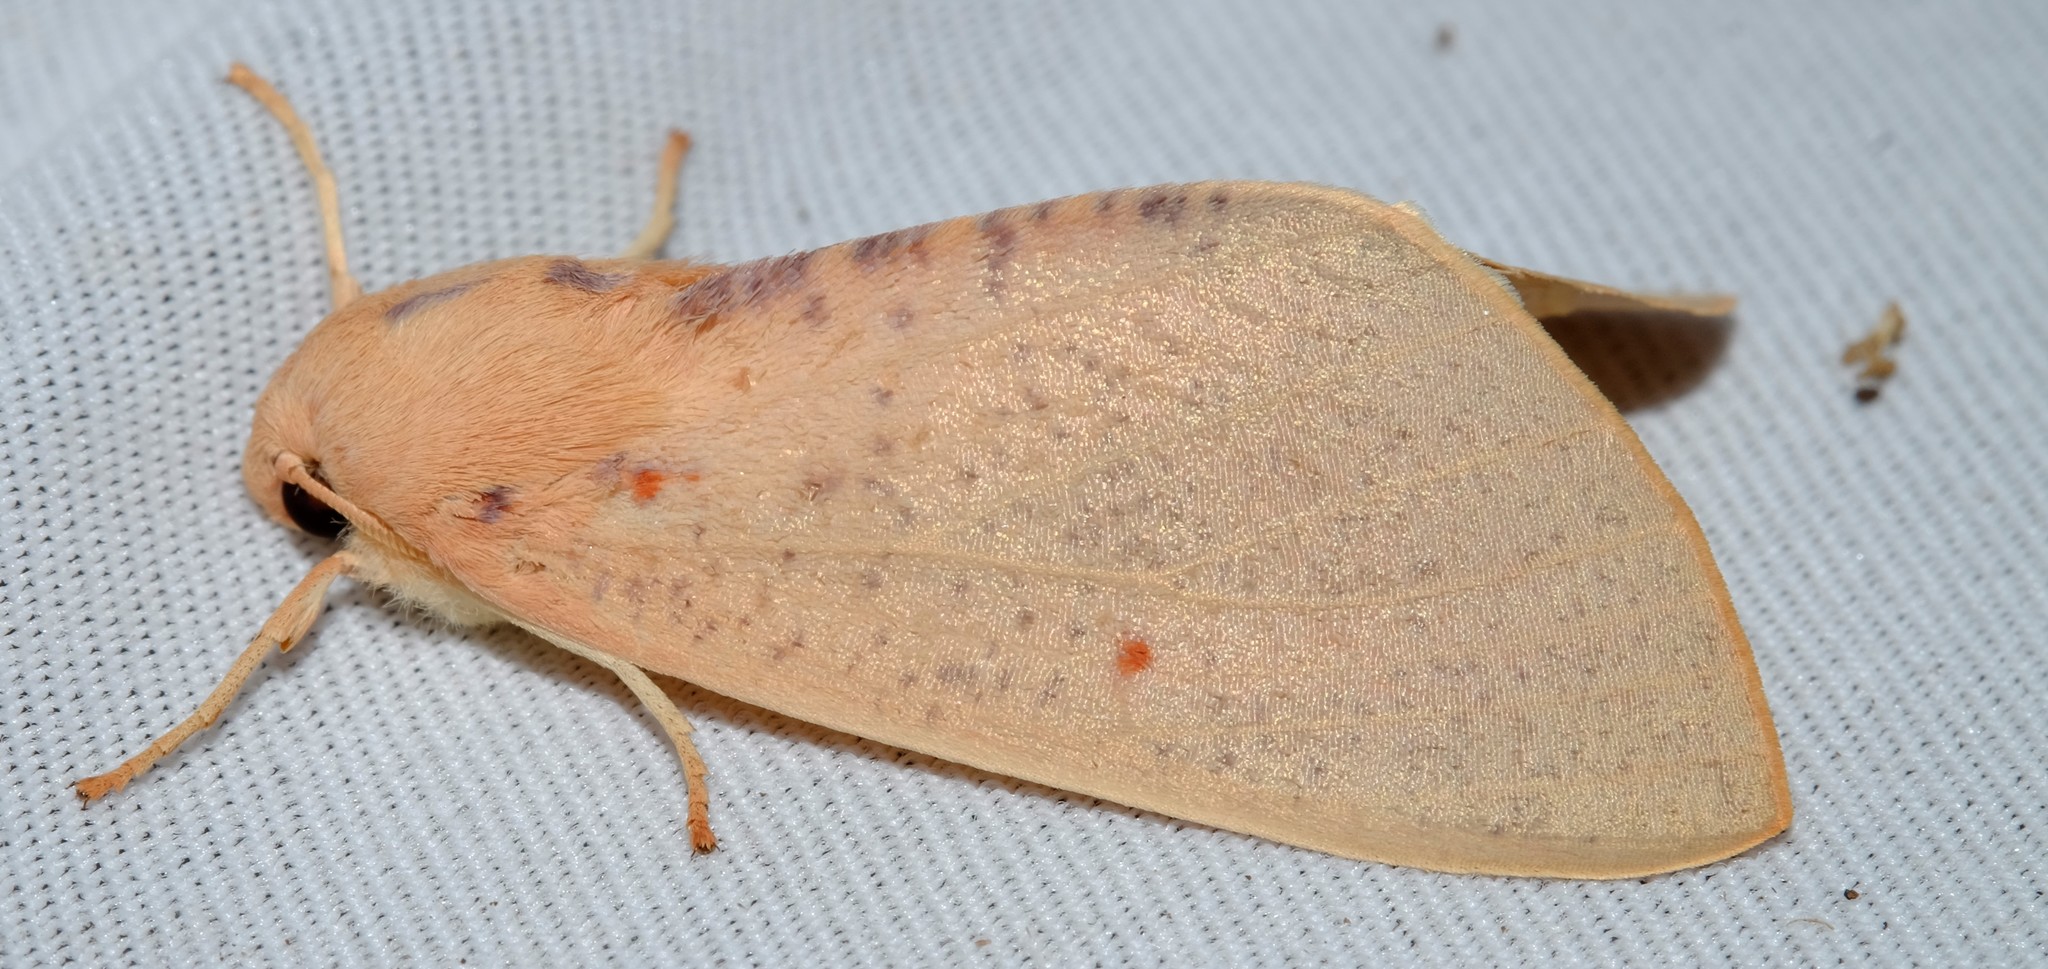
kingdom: Animalia
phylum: Arthropoda
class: Insecta
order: Lepidoptera
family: Geometridae
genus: Plesanemma
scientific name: Plesanemma fucata
